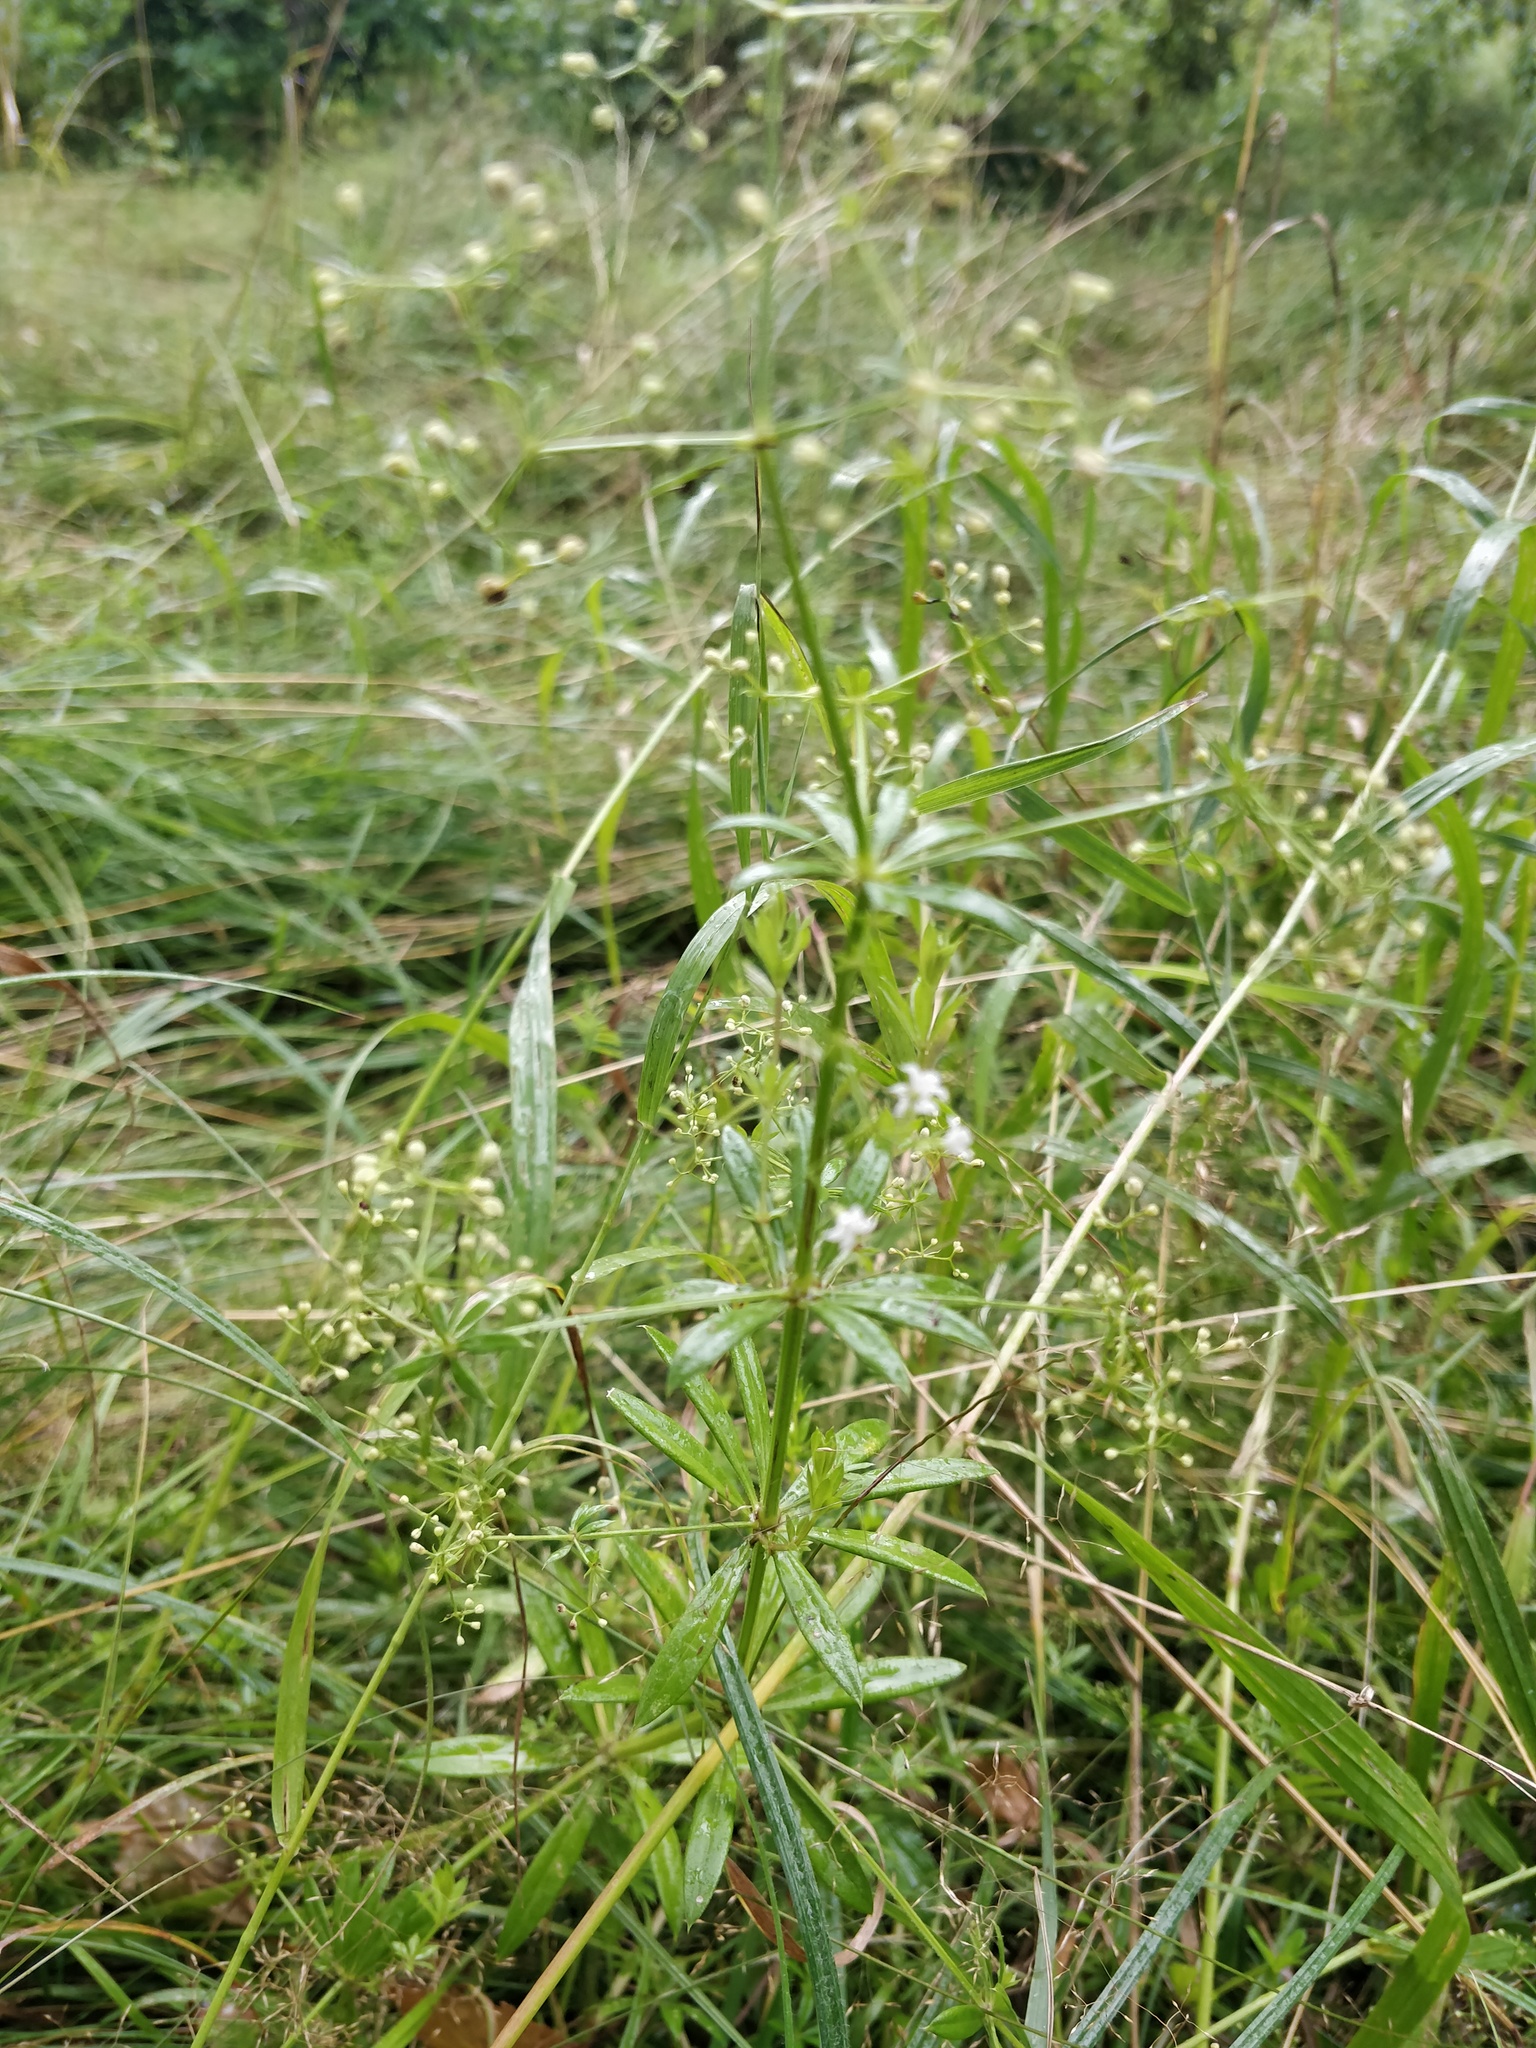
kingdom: Plantae
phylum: Tracheophyta
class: Magnoliopsida
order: Gentianales
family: Rubiaceae
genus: Galium
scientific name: Galium rivale
